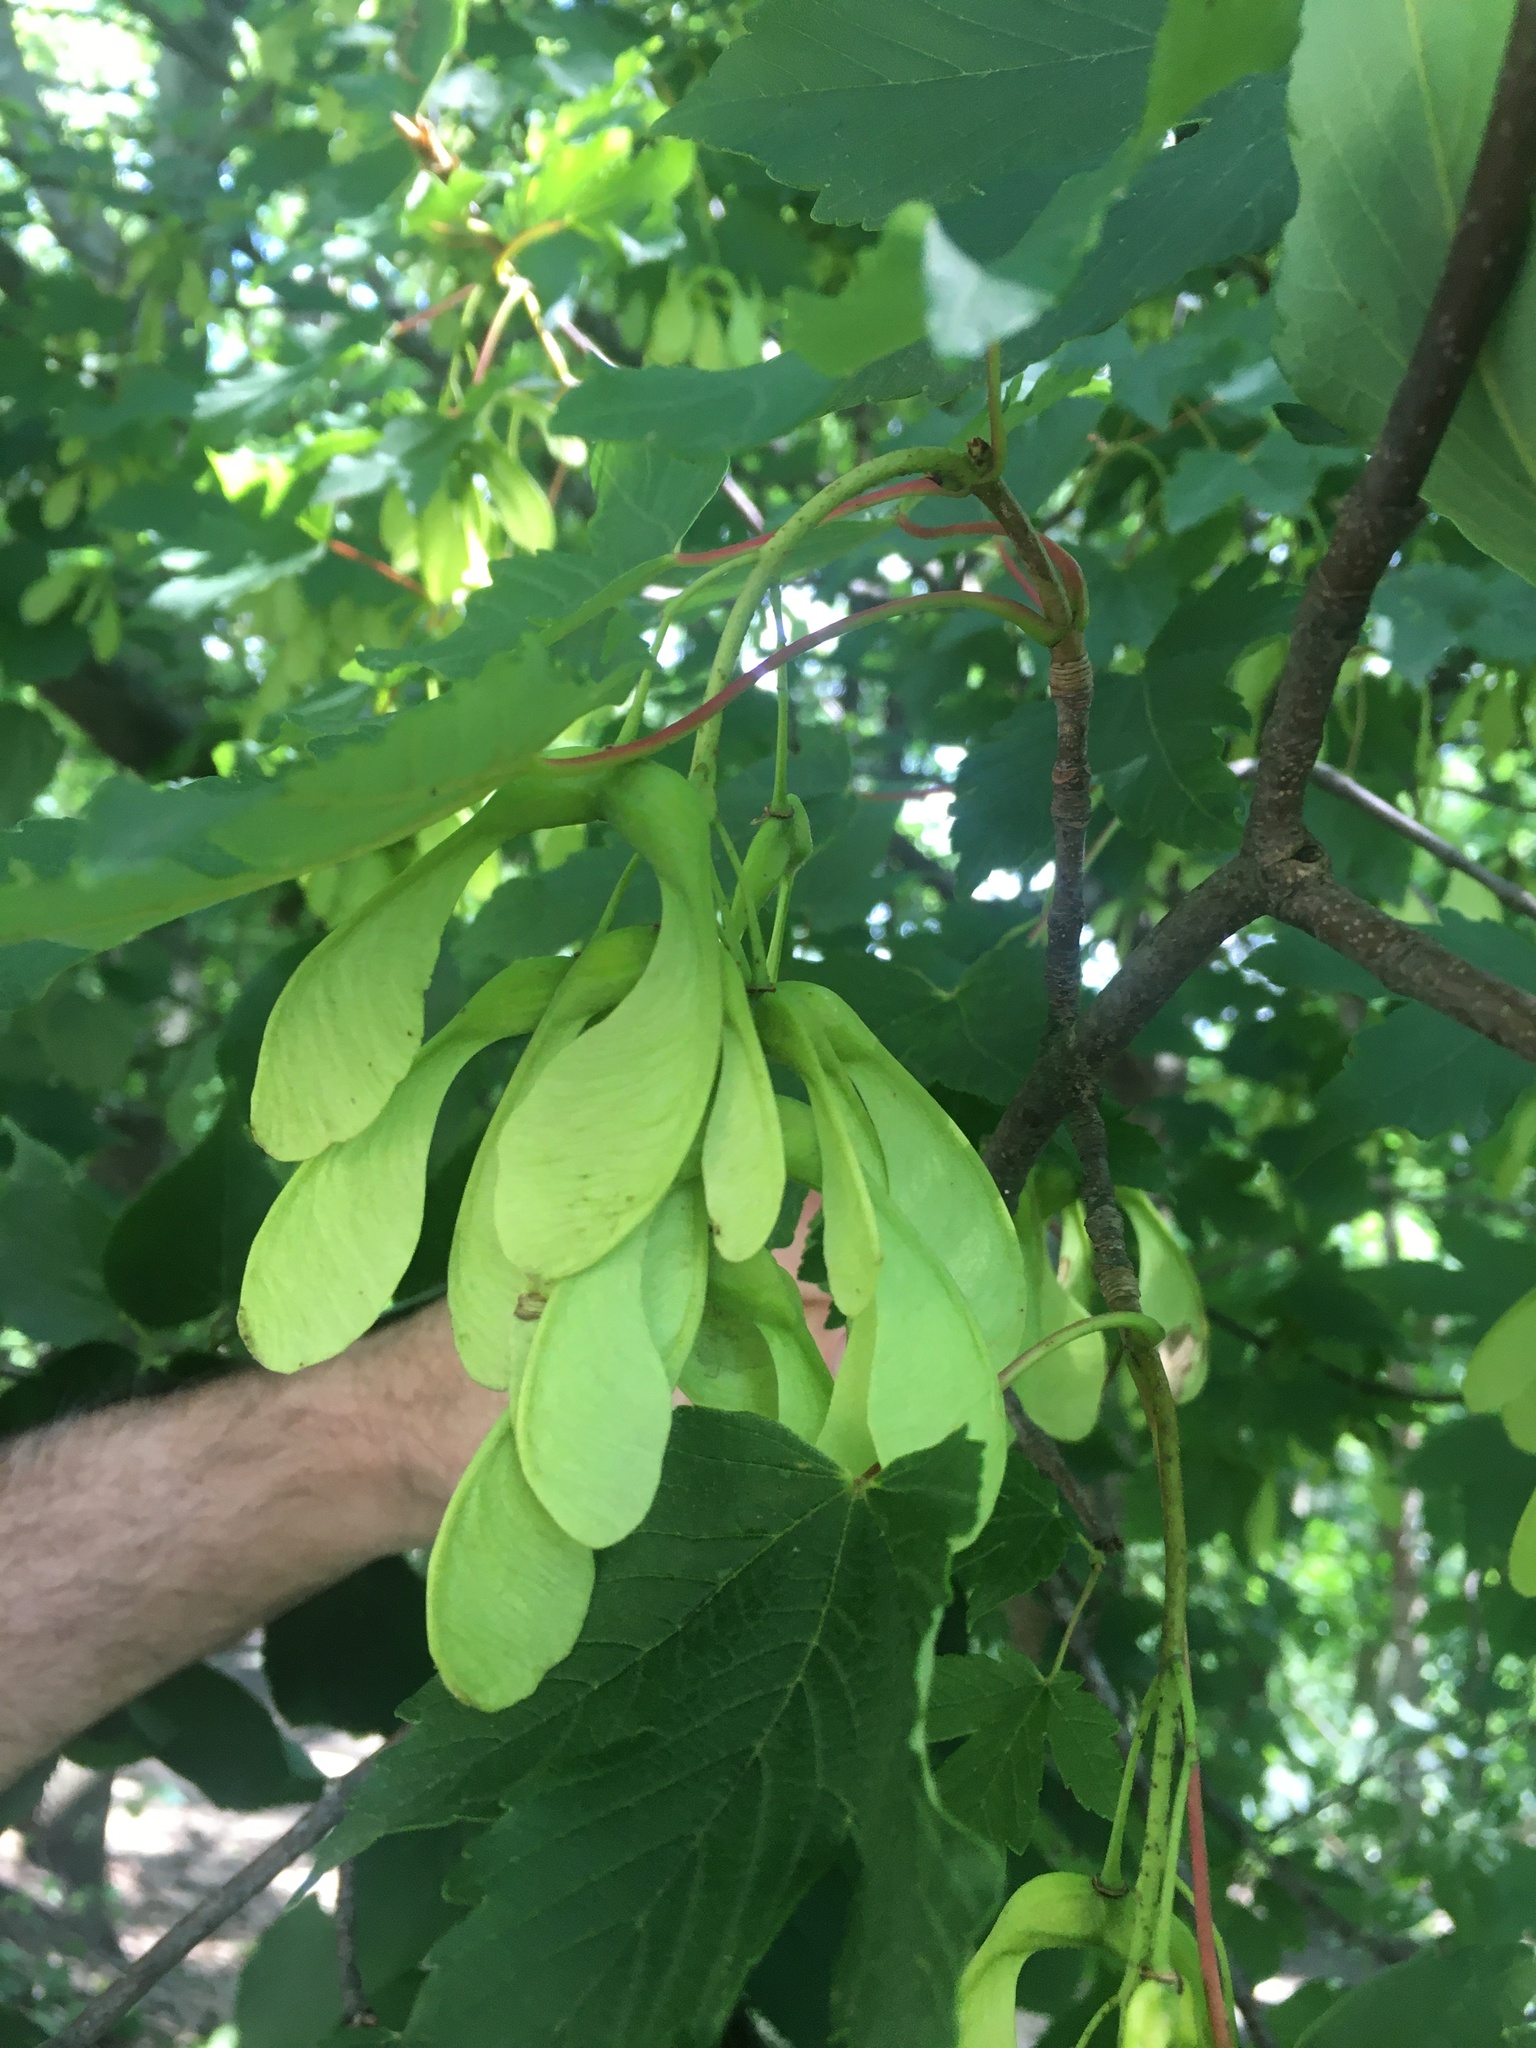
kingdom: Plantae
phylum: Tracheophyta
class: Magnoliopsida
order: Sapindales
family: Sapindaceae
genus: Acer
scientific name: Acer pseudoplatanus
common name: Sycamore
